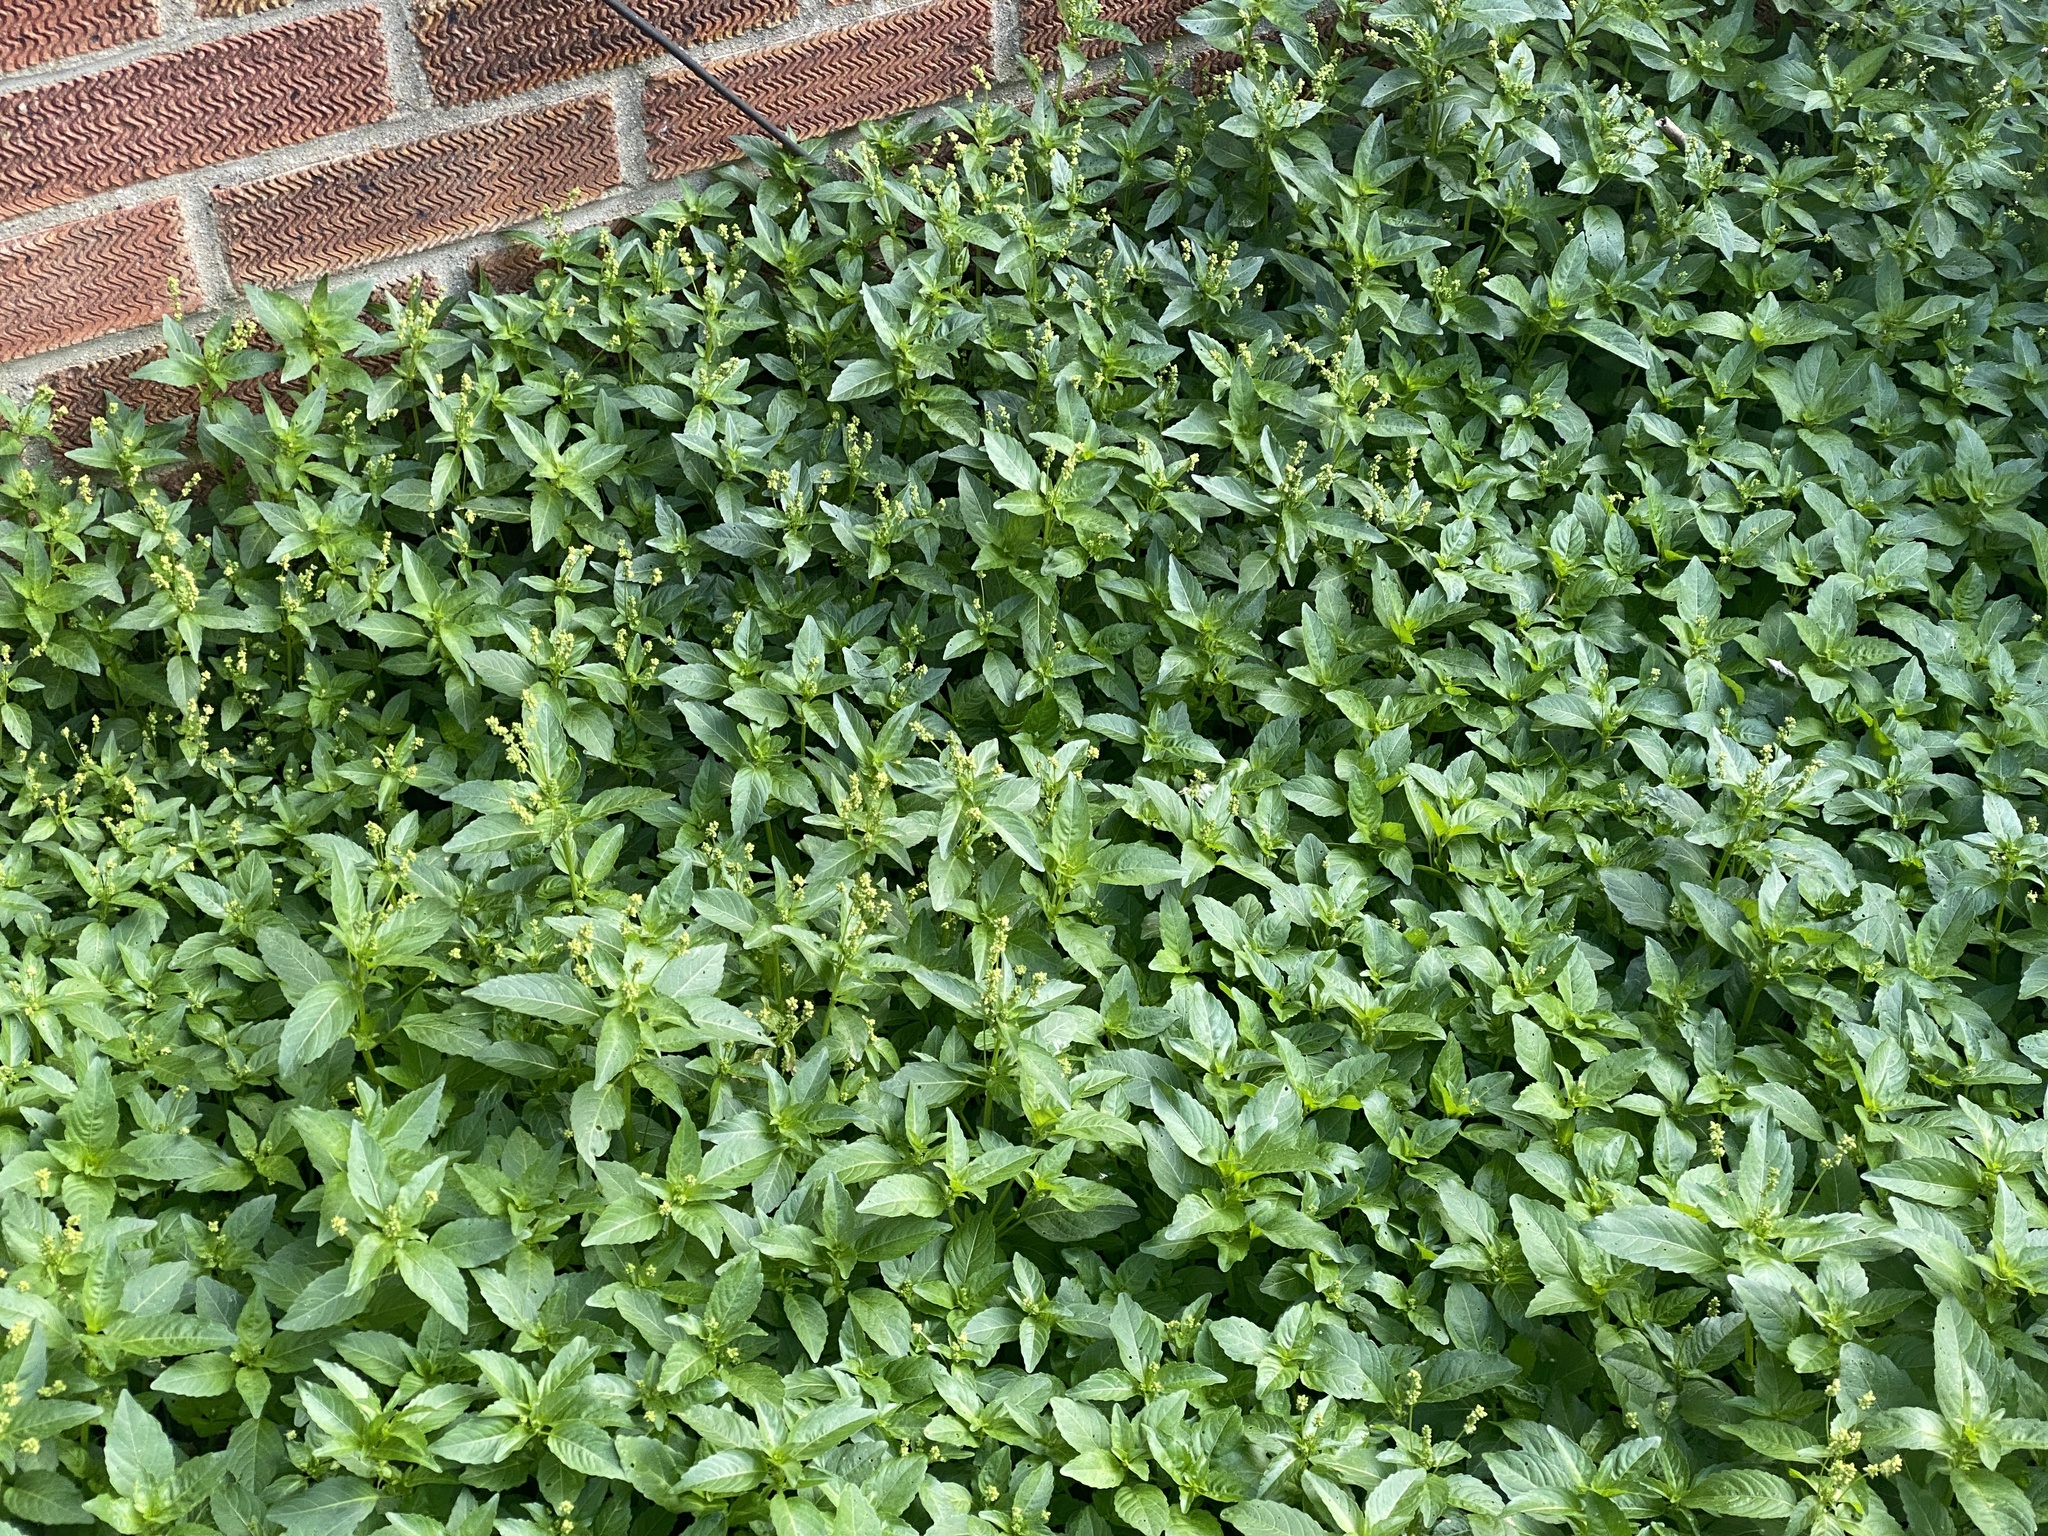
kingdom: Plantae
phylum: Tracheophyta
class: Magnoliopsida
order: Malpighiales
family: Euphorbiaceae
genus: Mercurialis
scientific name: Mercurialis annua
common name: Annual mercury
